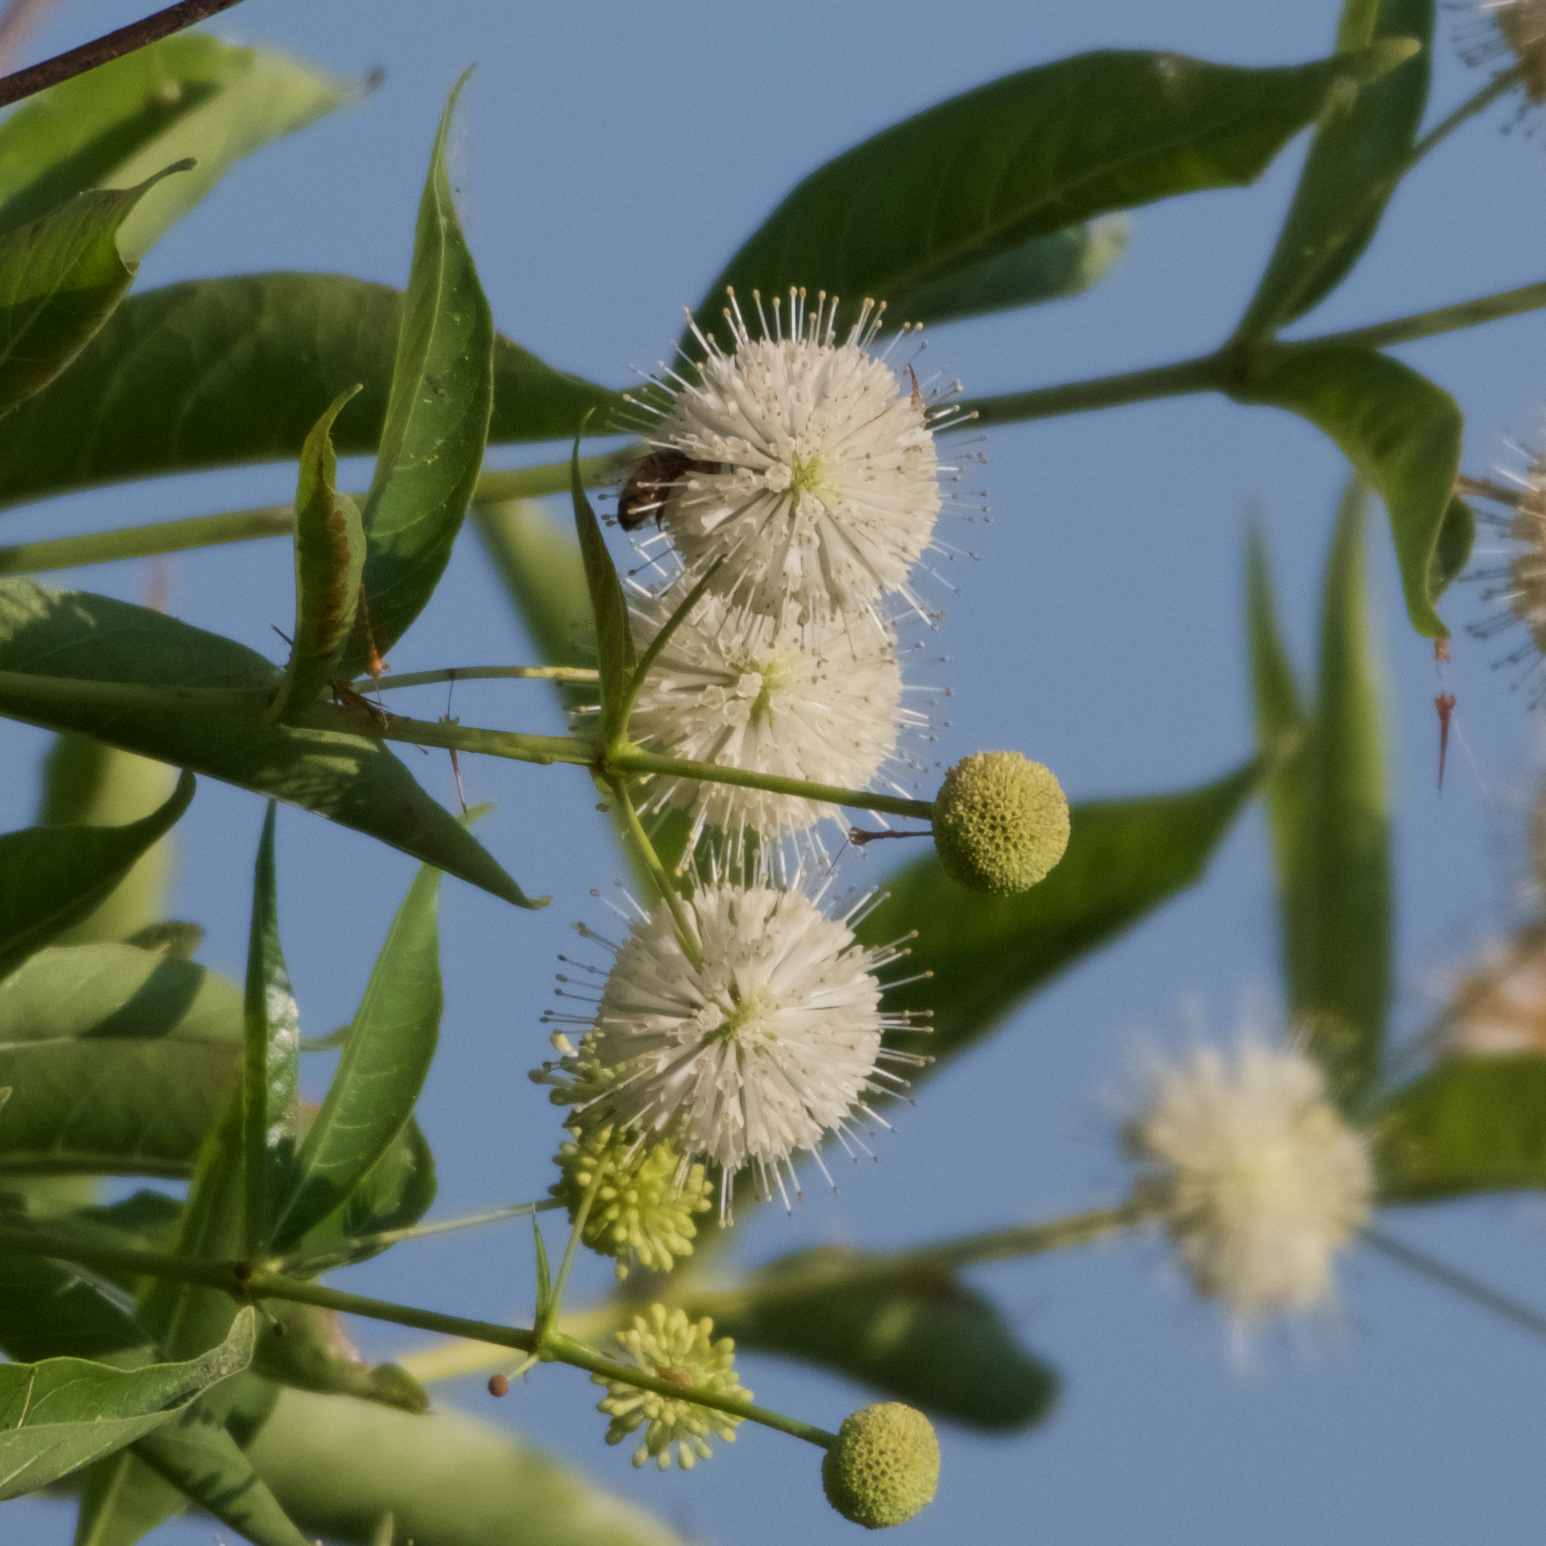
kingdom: Plantae
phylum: Tracheophyta
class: Magnoliopsida
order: Gentianales
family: Rubiaceae
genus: Cephalanthus
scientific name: Cephalanthus occidentalis
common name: Button-willow
